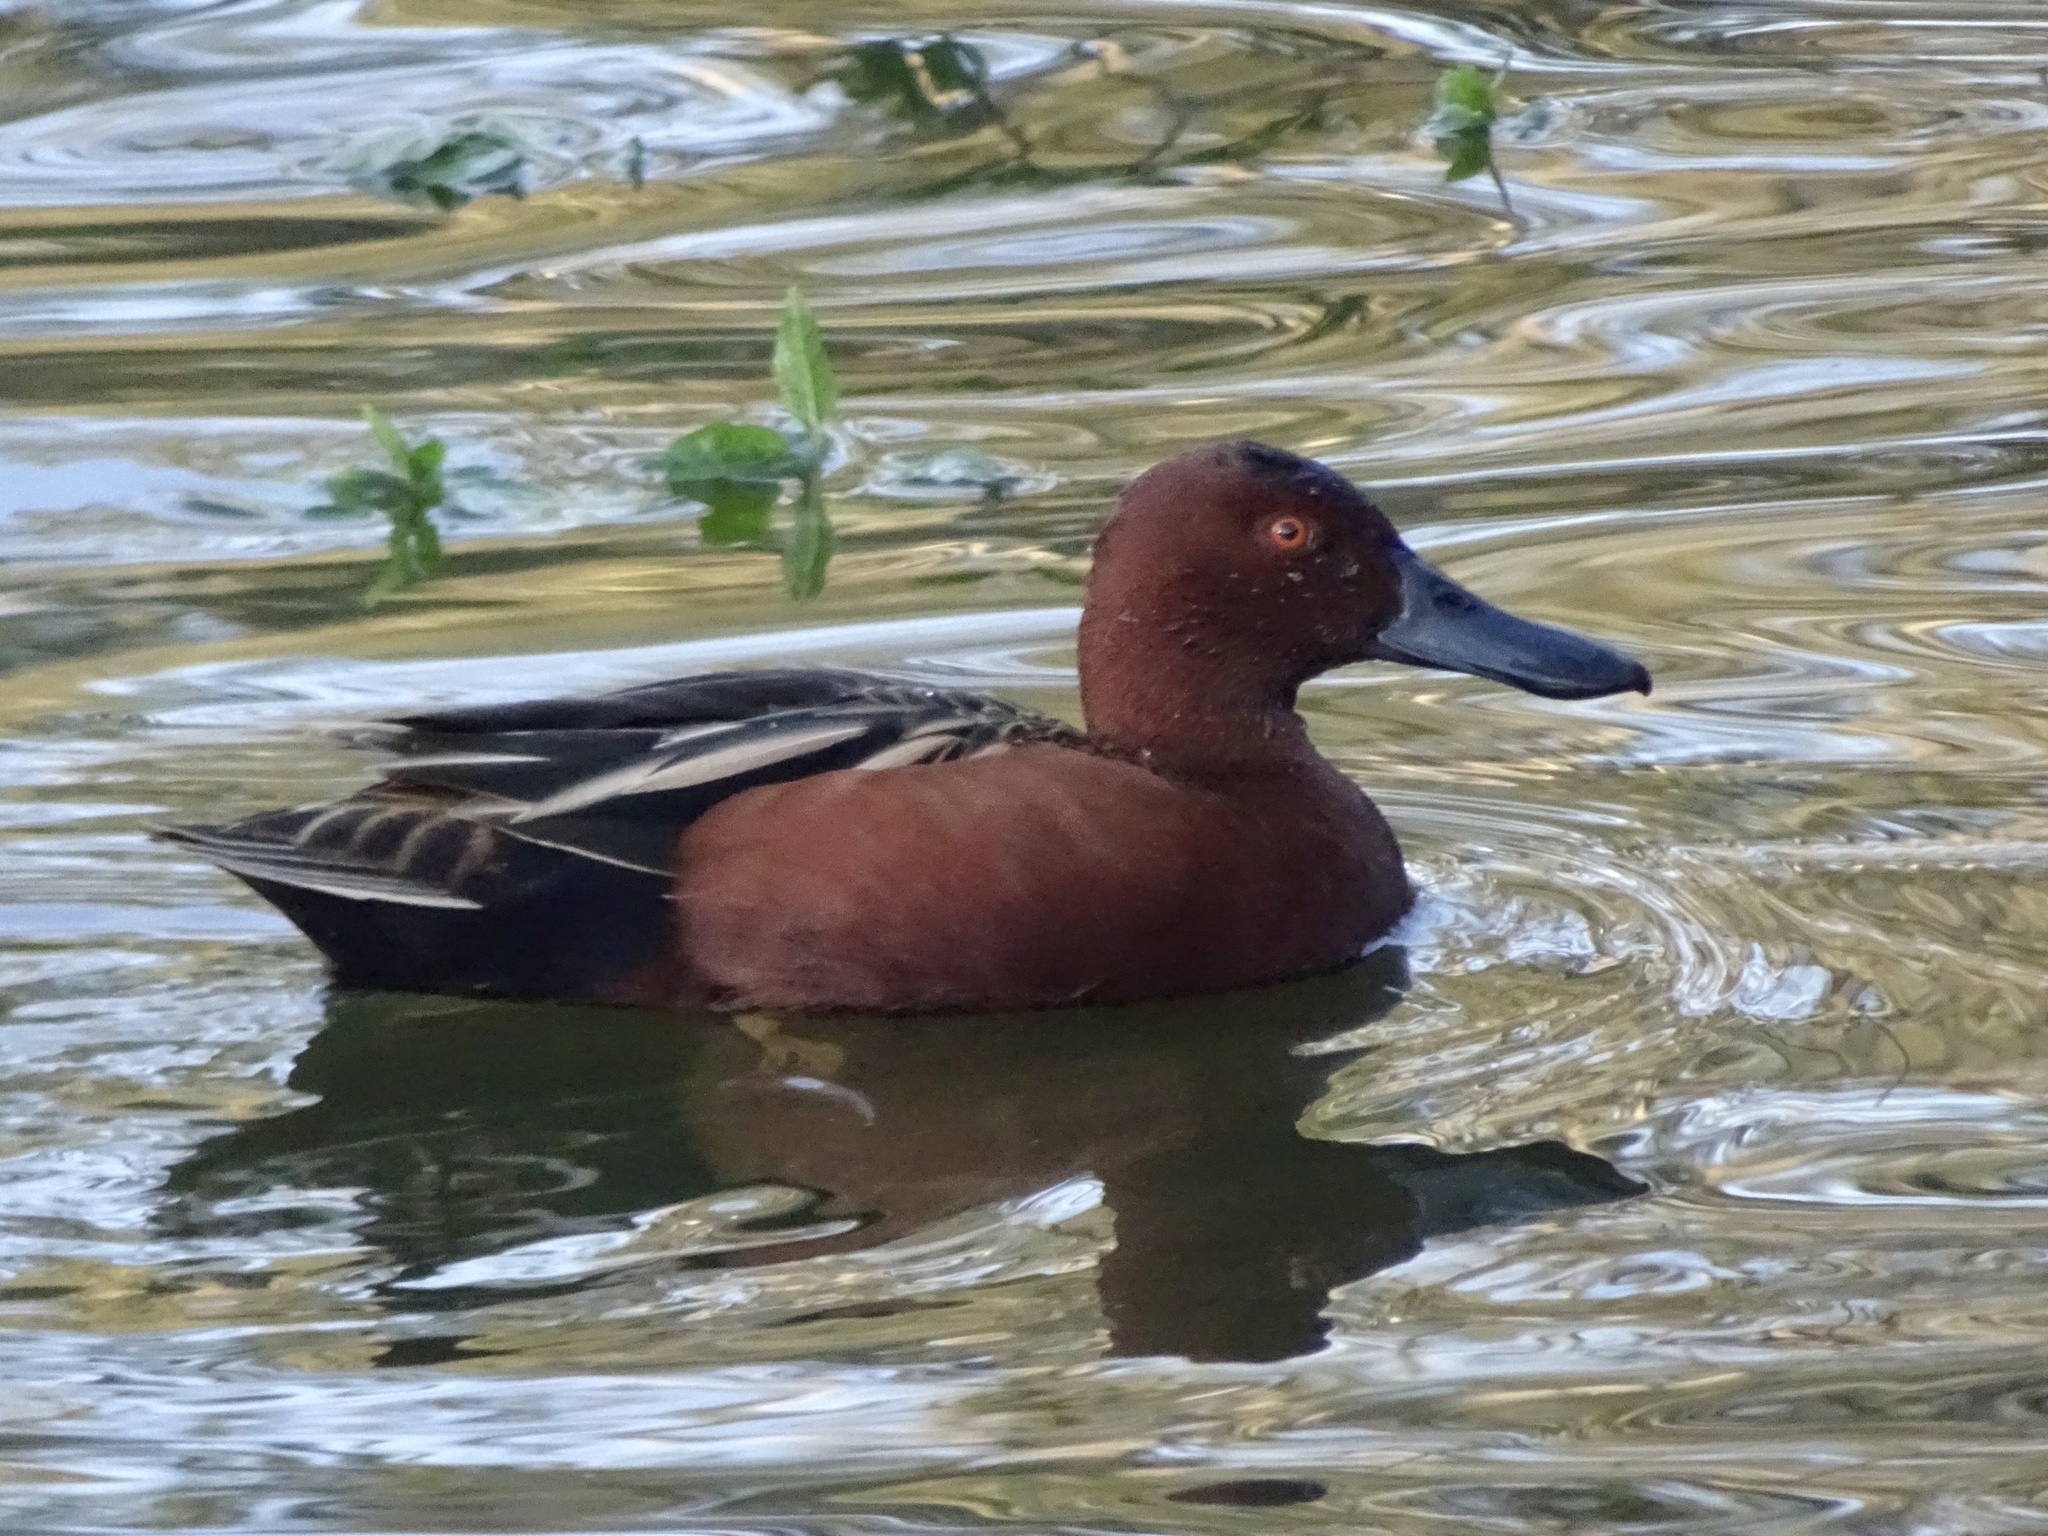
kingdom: Animalia
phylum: Chordata
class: Aves
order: Anseriformes
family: Anatidae
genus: Spatula
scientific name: Spatula cyanoptera
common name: Cinnamon teal
